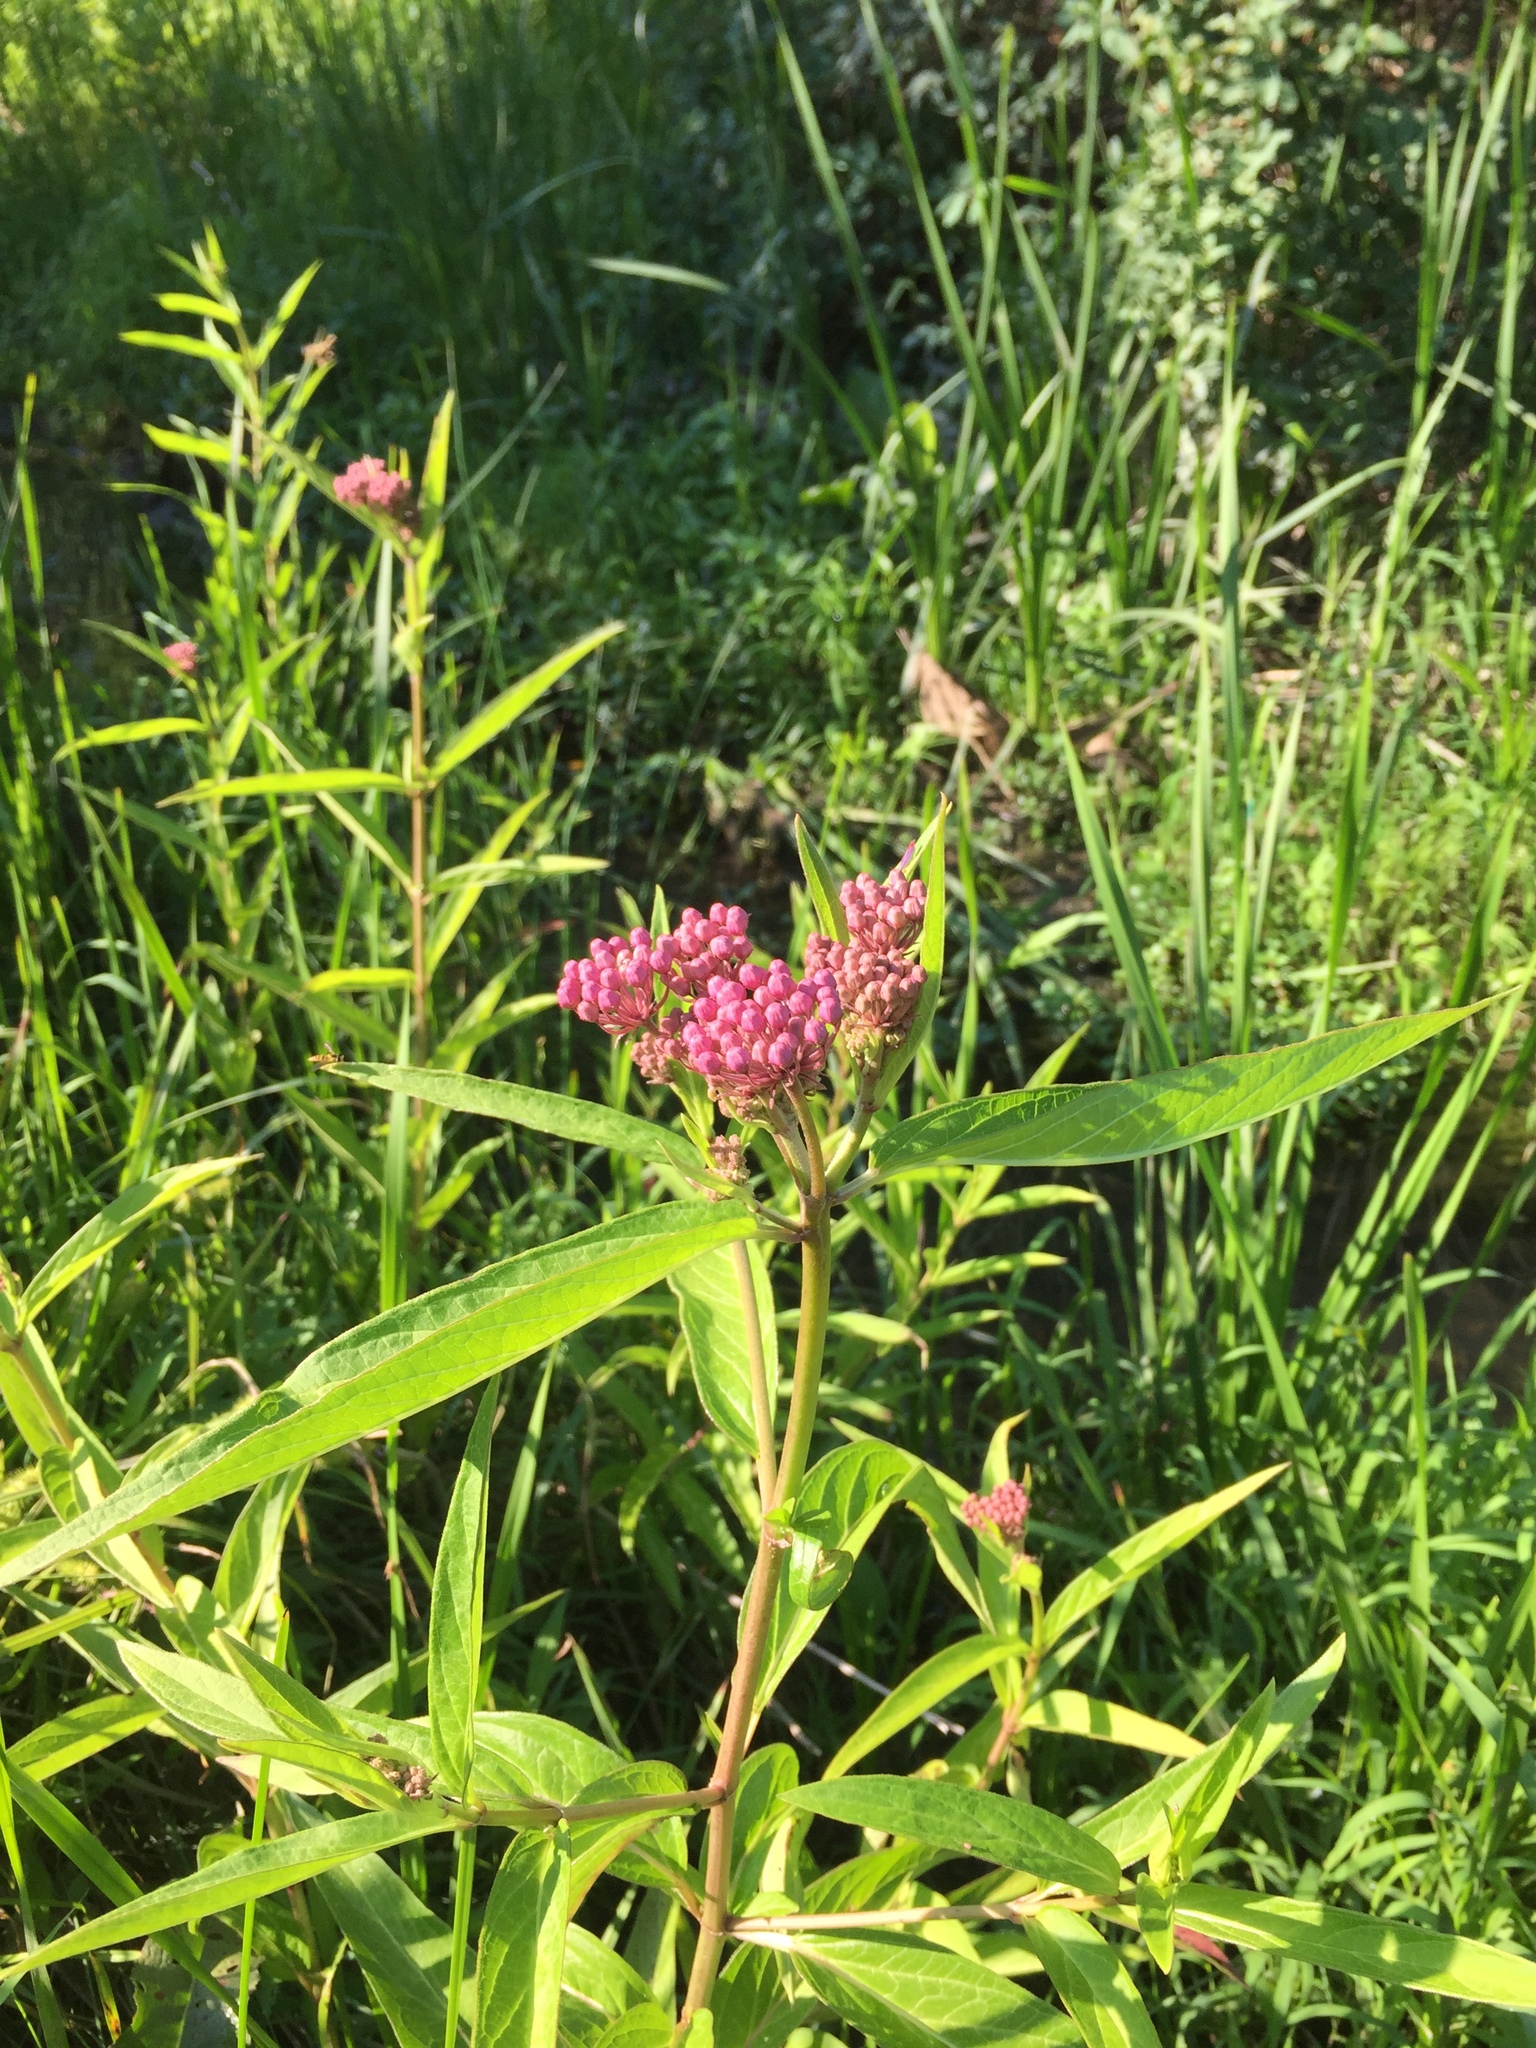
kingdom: Plantae
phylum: Tracheophyta
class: Magnoliopsida
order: Gentianales
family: Apocynaceae
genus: Asclepias
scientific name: Asclepias incarnata
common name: Swamp milkweed
